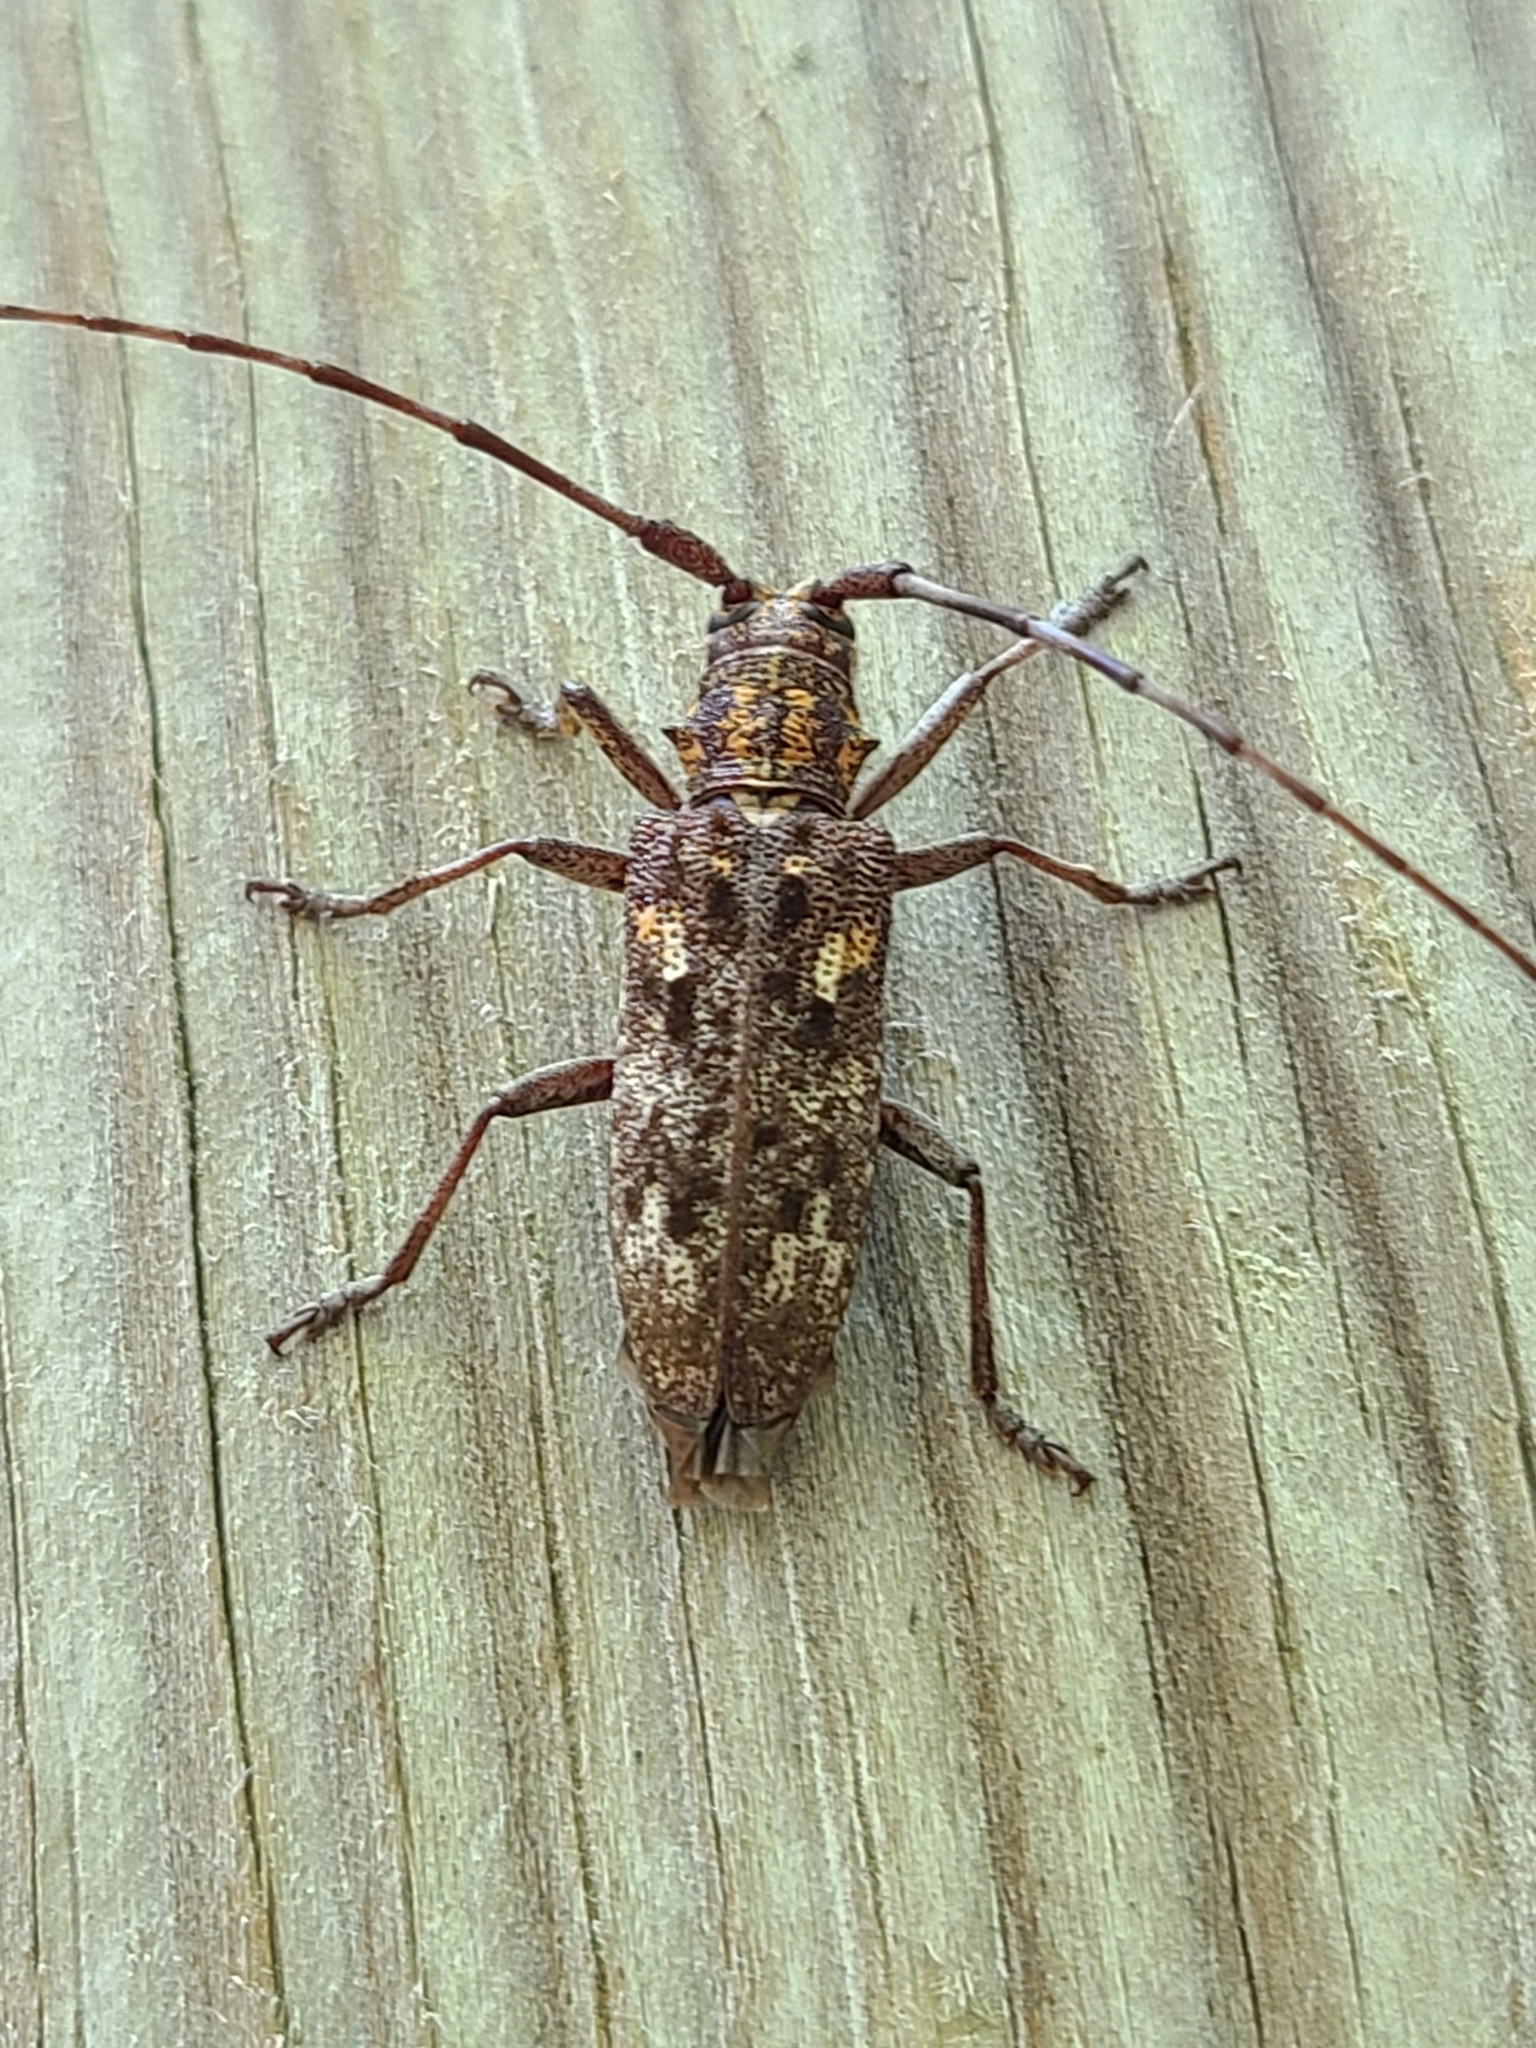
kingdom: Animalia
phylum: Arthropoda
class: Insecta
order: Coleoptera
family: Cerambycidae
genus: Monochamus
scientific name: Monochamus carolinensis
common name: Carolina pine sawyer
